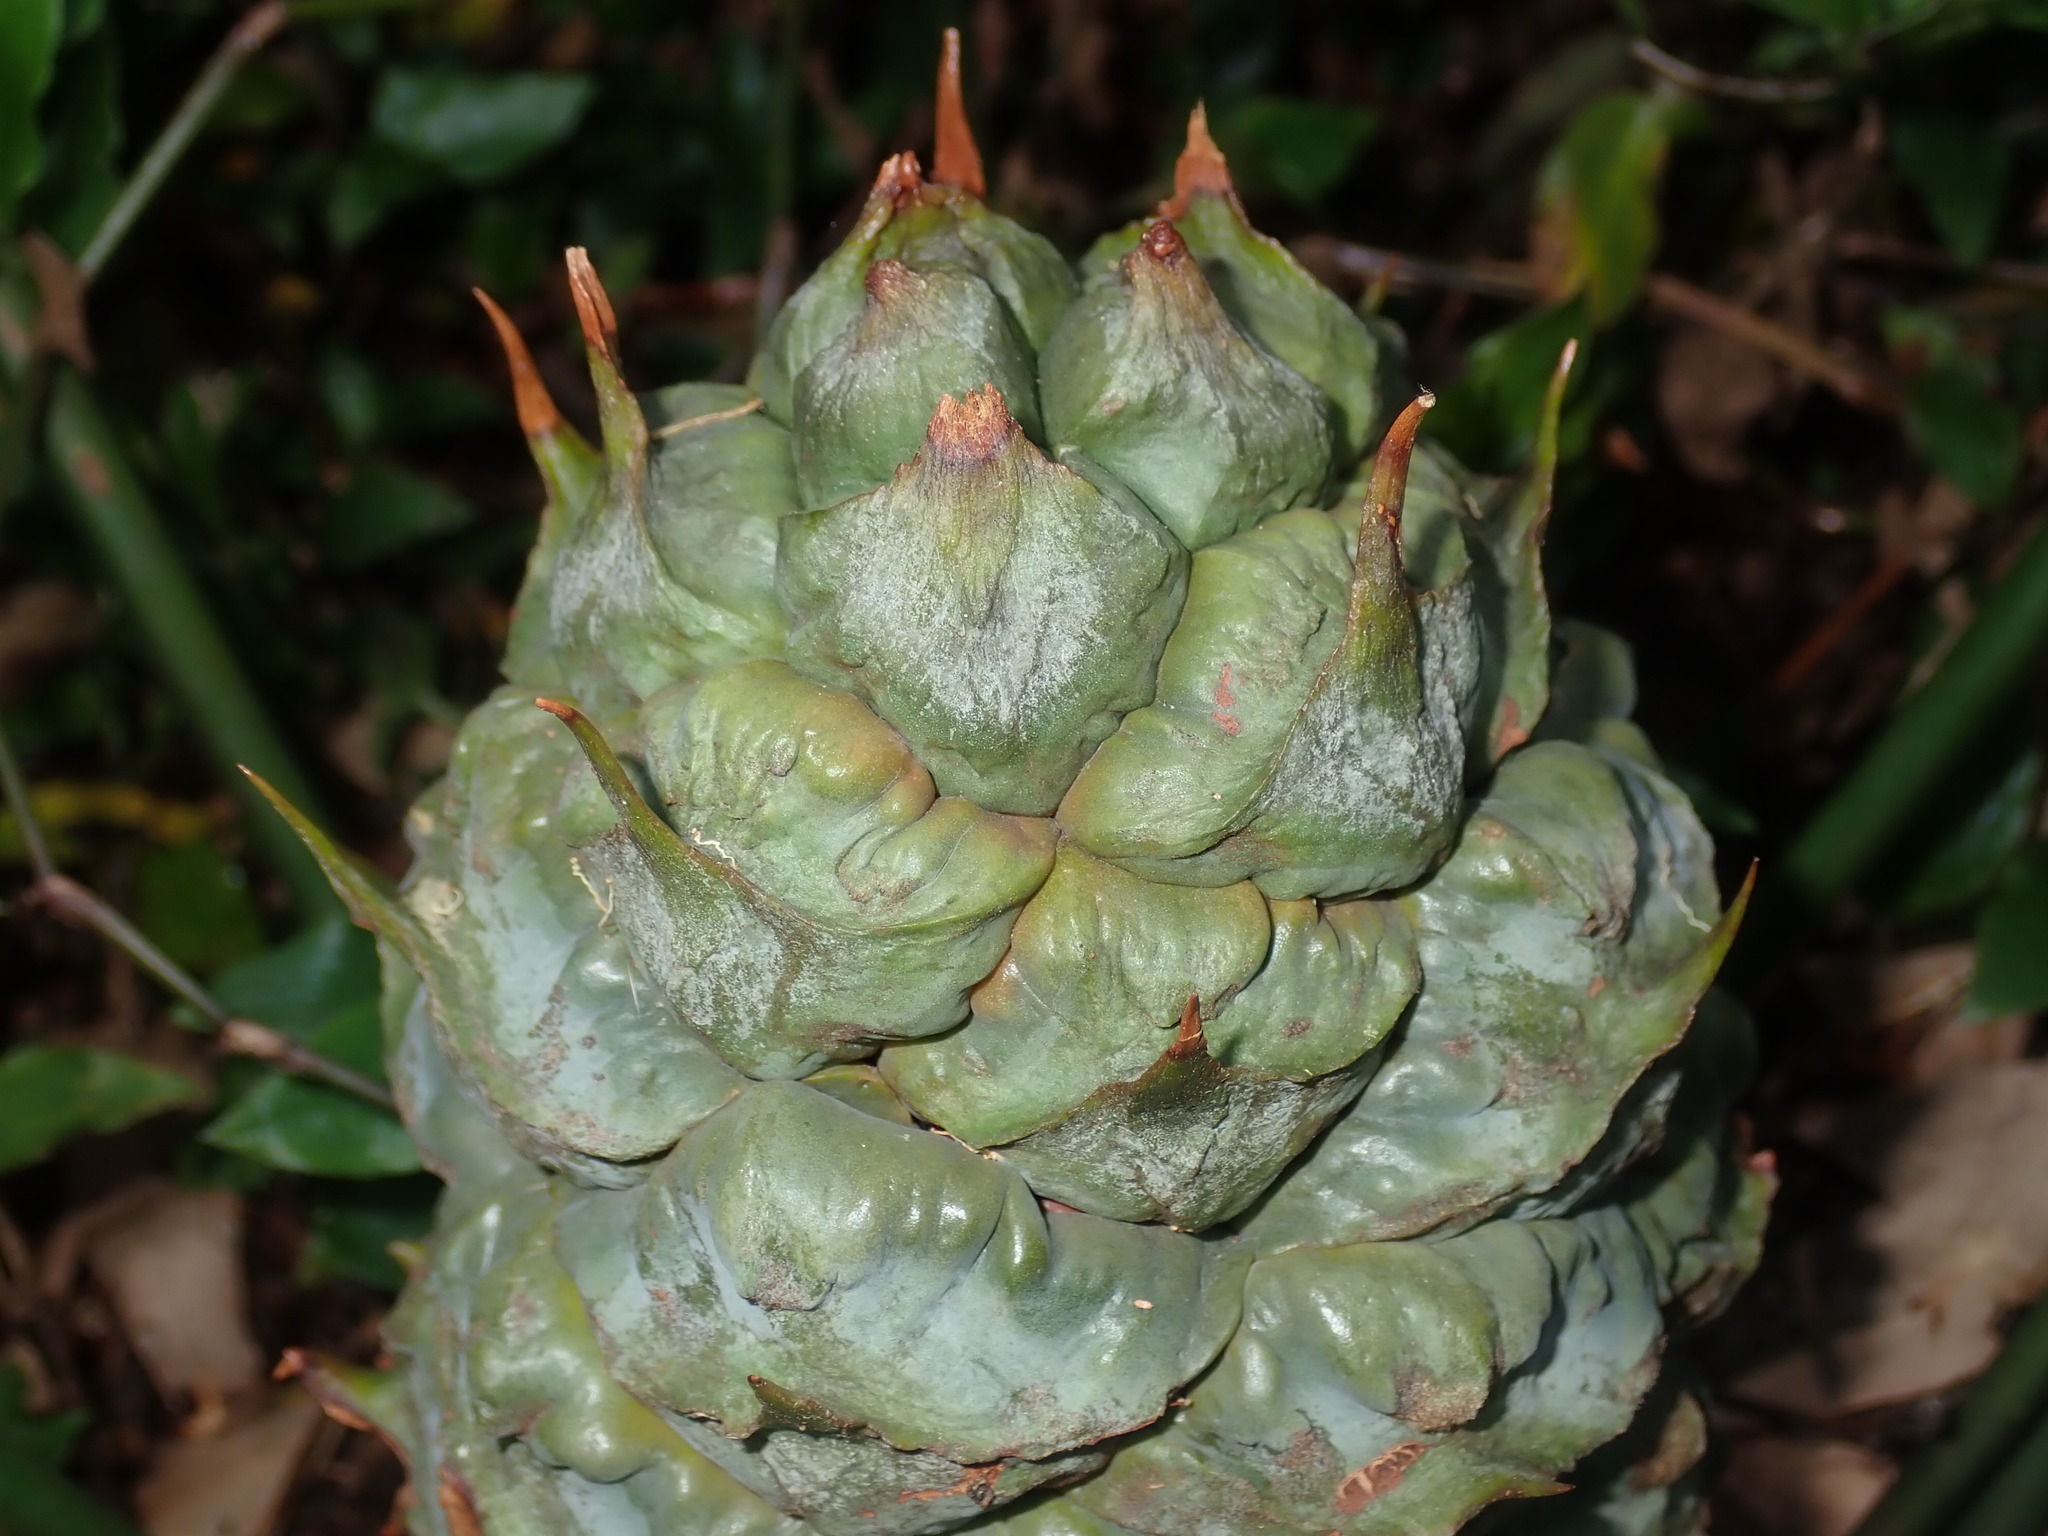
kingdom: Plantae
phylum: Tracheophyta
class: Cycadopsida
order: Cycadales
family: Zamiaceae
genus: Macrozamia
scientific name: Macrozamia spiralis
